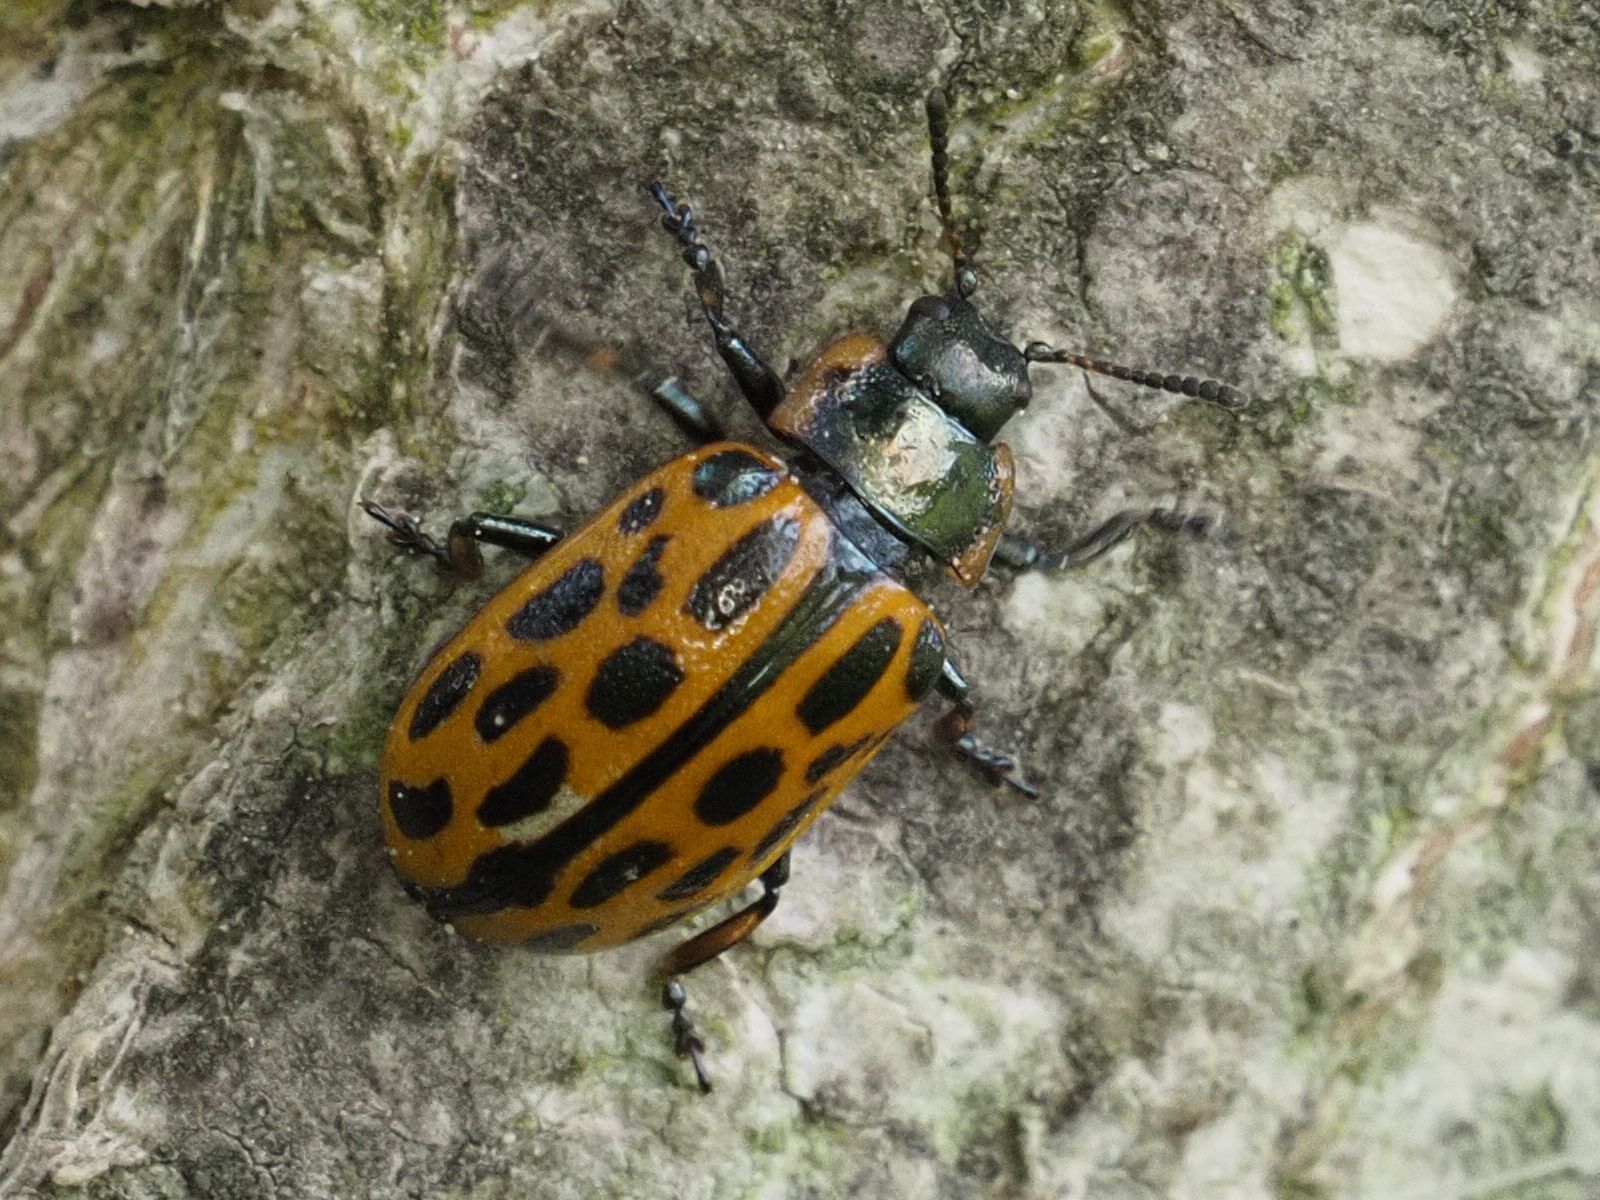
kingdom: Animalia
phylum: Arthropoda
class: Insecta
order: Coleoptera
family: Chrysomelidae
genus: Chrysomela
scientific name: Chrysomela vigintipunctata
